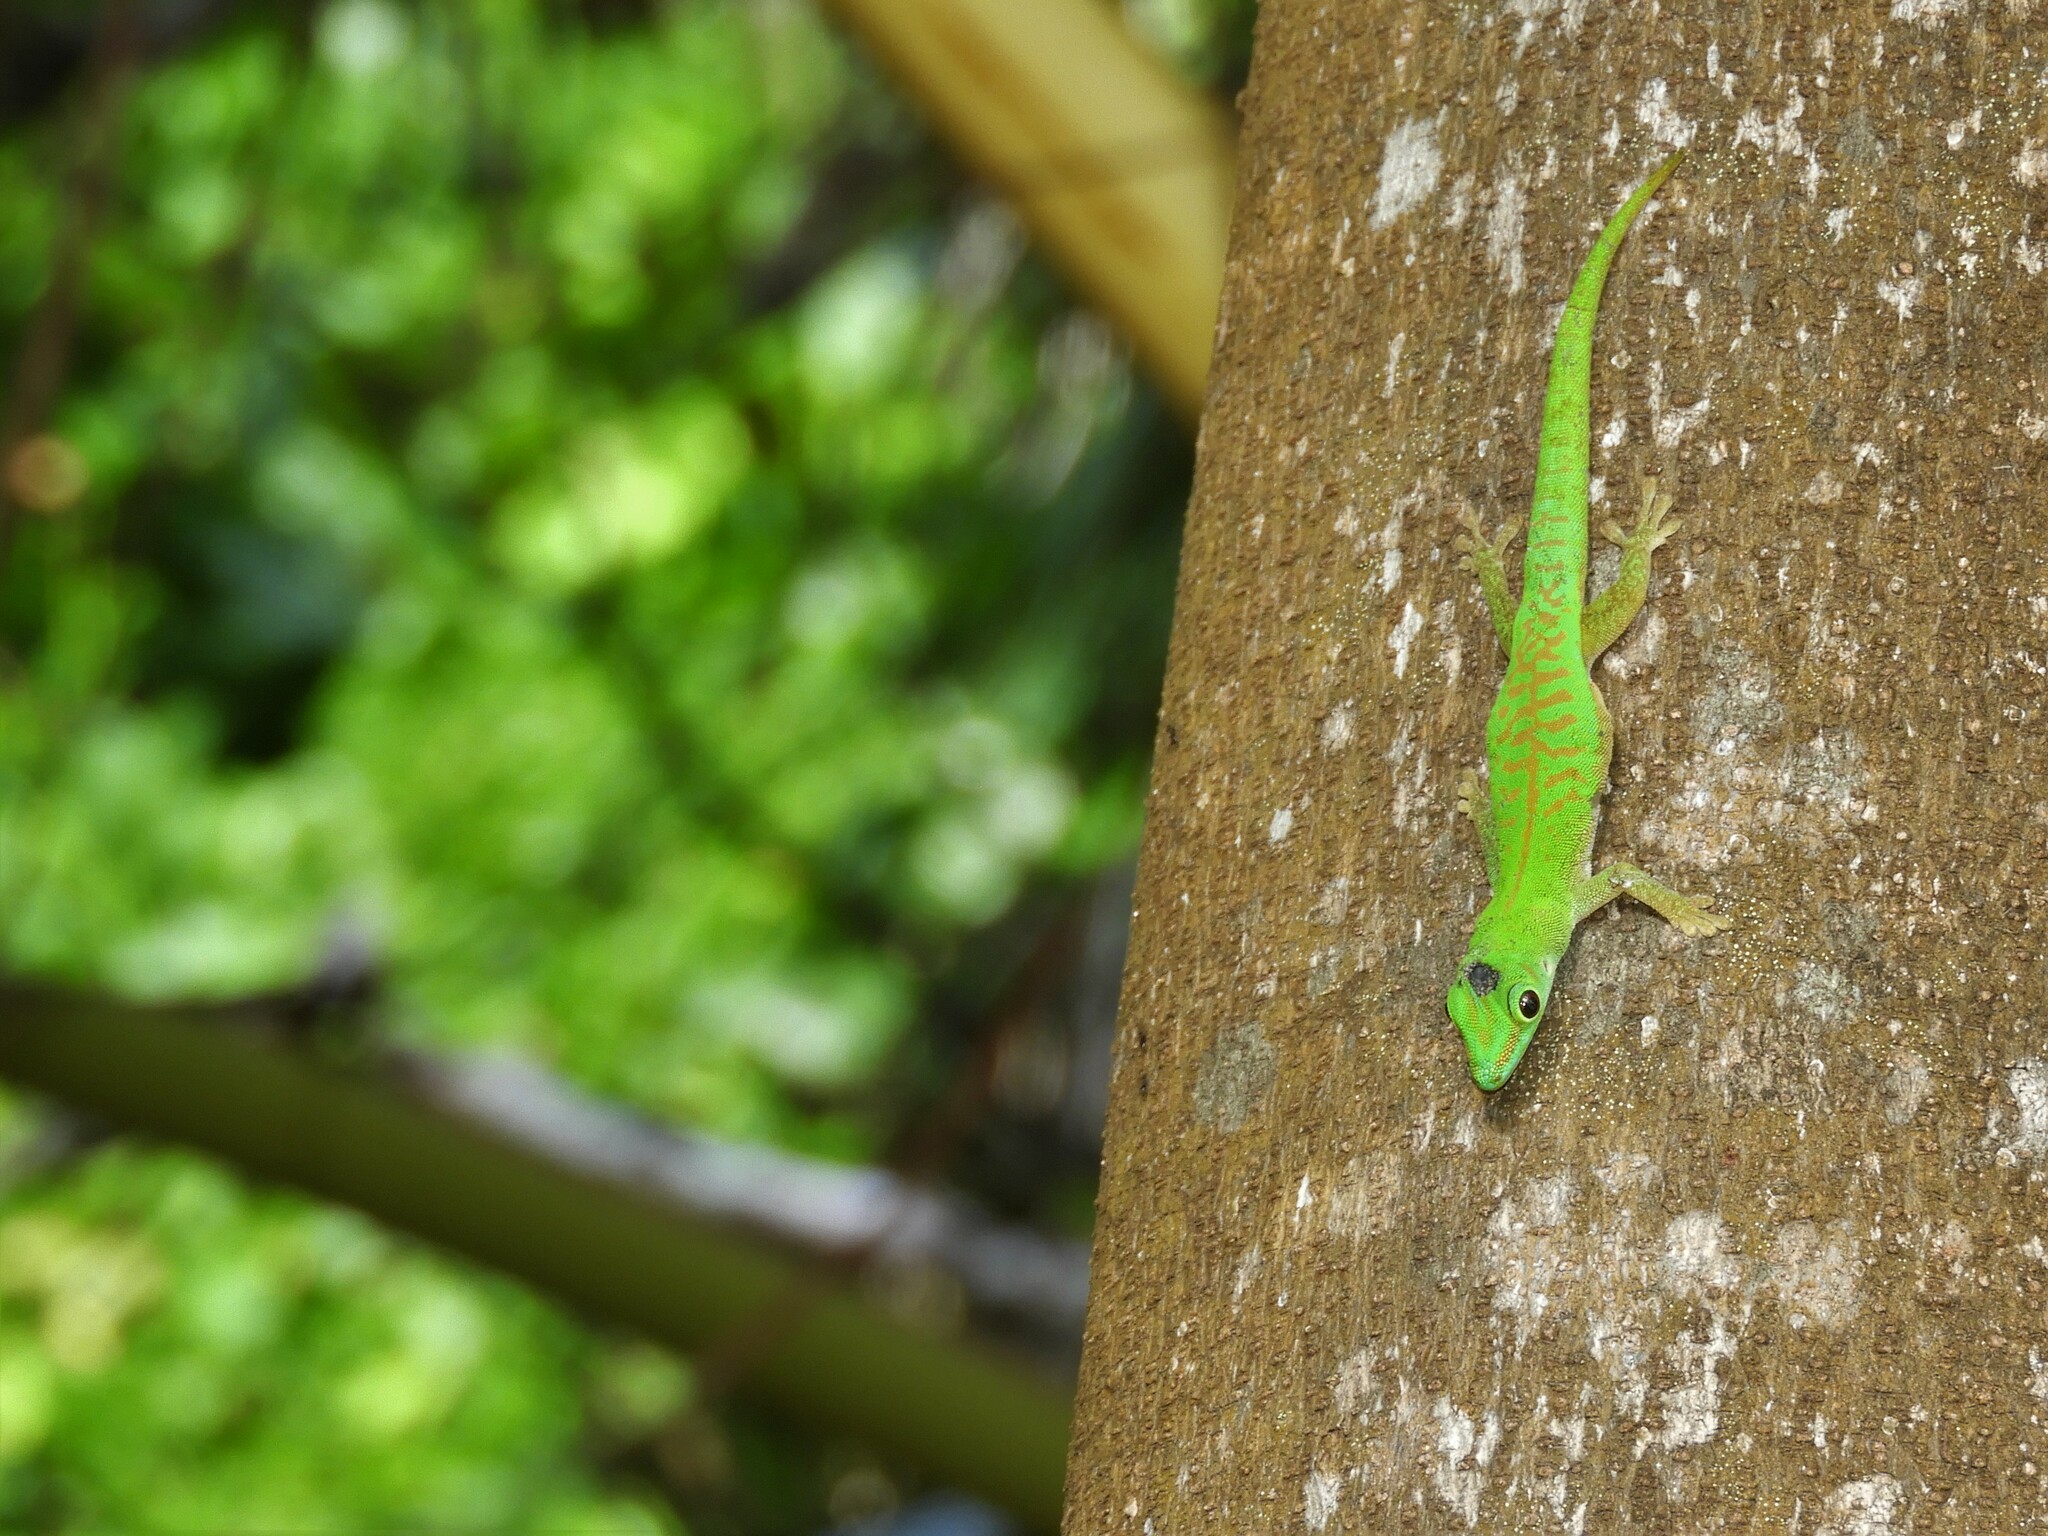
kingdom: Animalia
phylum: Chordata
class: Squamata
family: Gekkonidae
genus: Phelsuma
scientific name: Phelsuma astriata
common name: Seychelles day gecko
